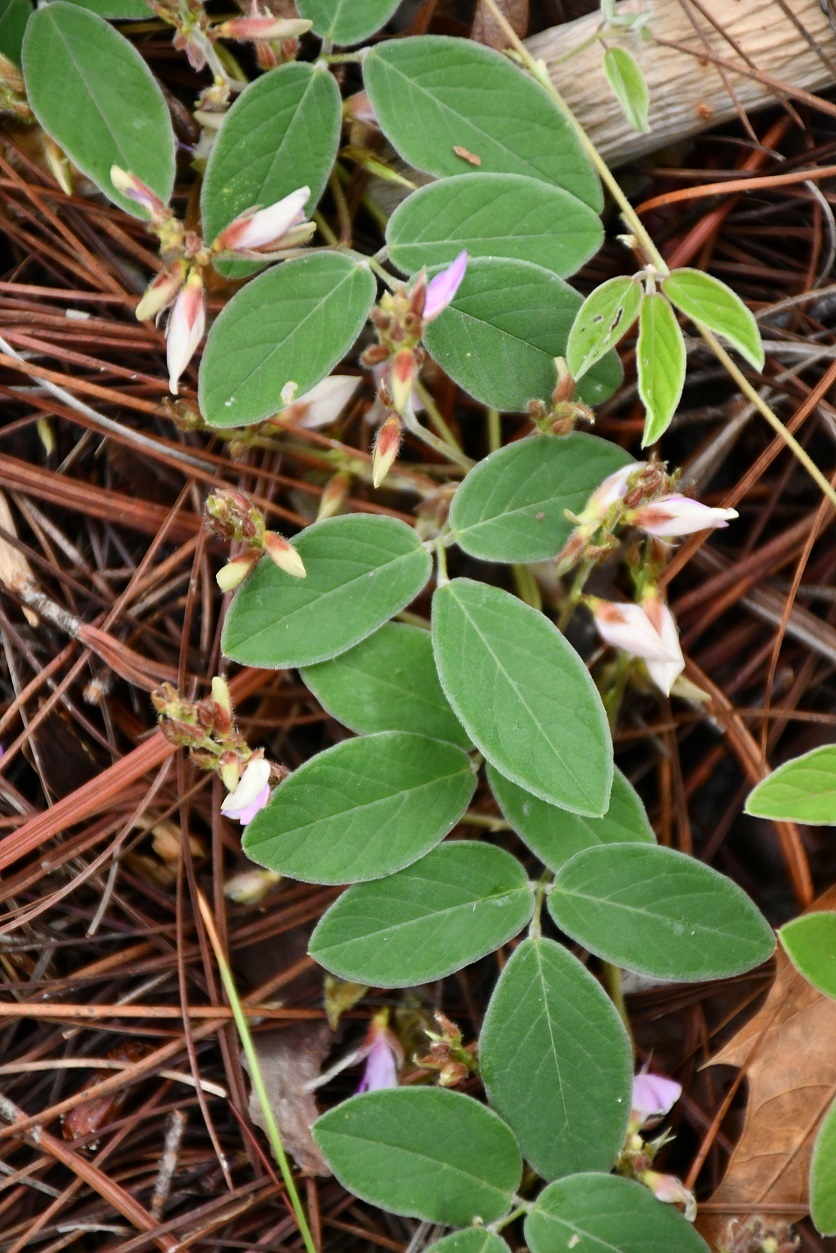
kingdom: Plantae
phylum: Tracheophyta
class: Magnoliopsida
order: Fabales
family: Fabaceae
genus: Clitoria
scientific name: Clitoria polystachya
